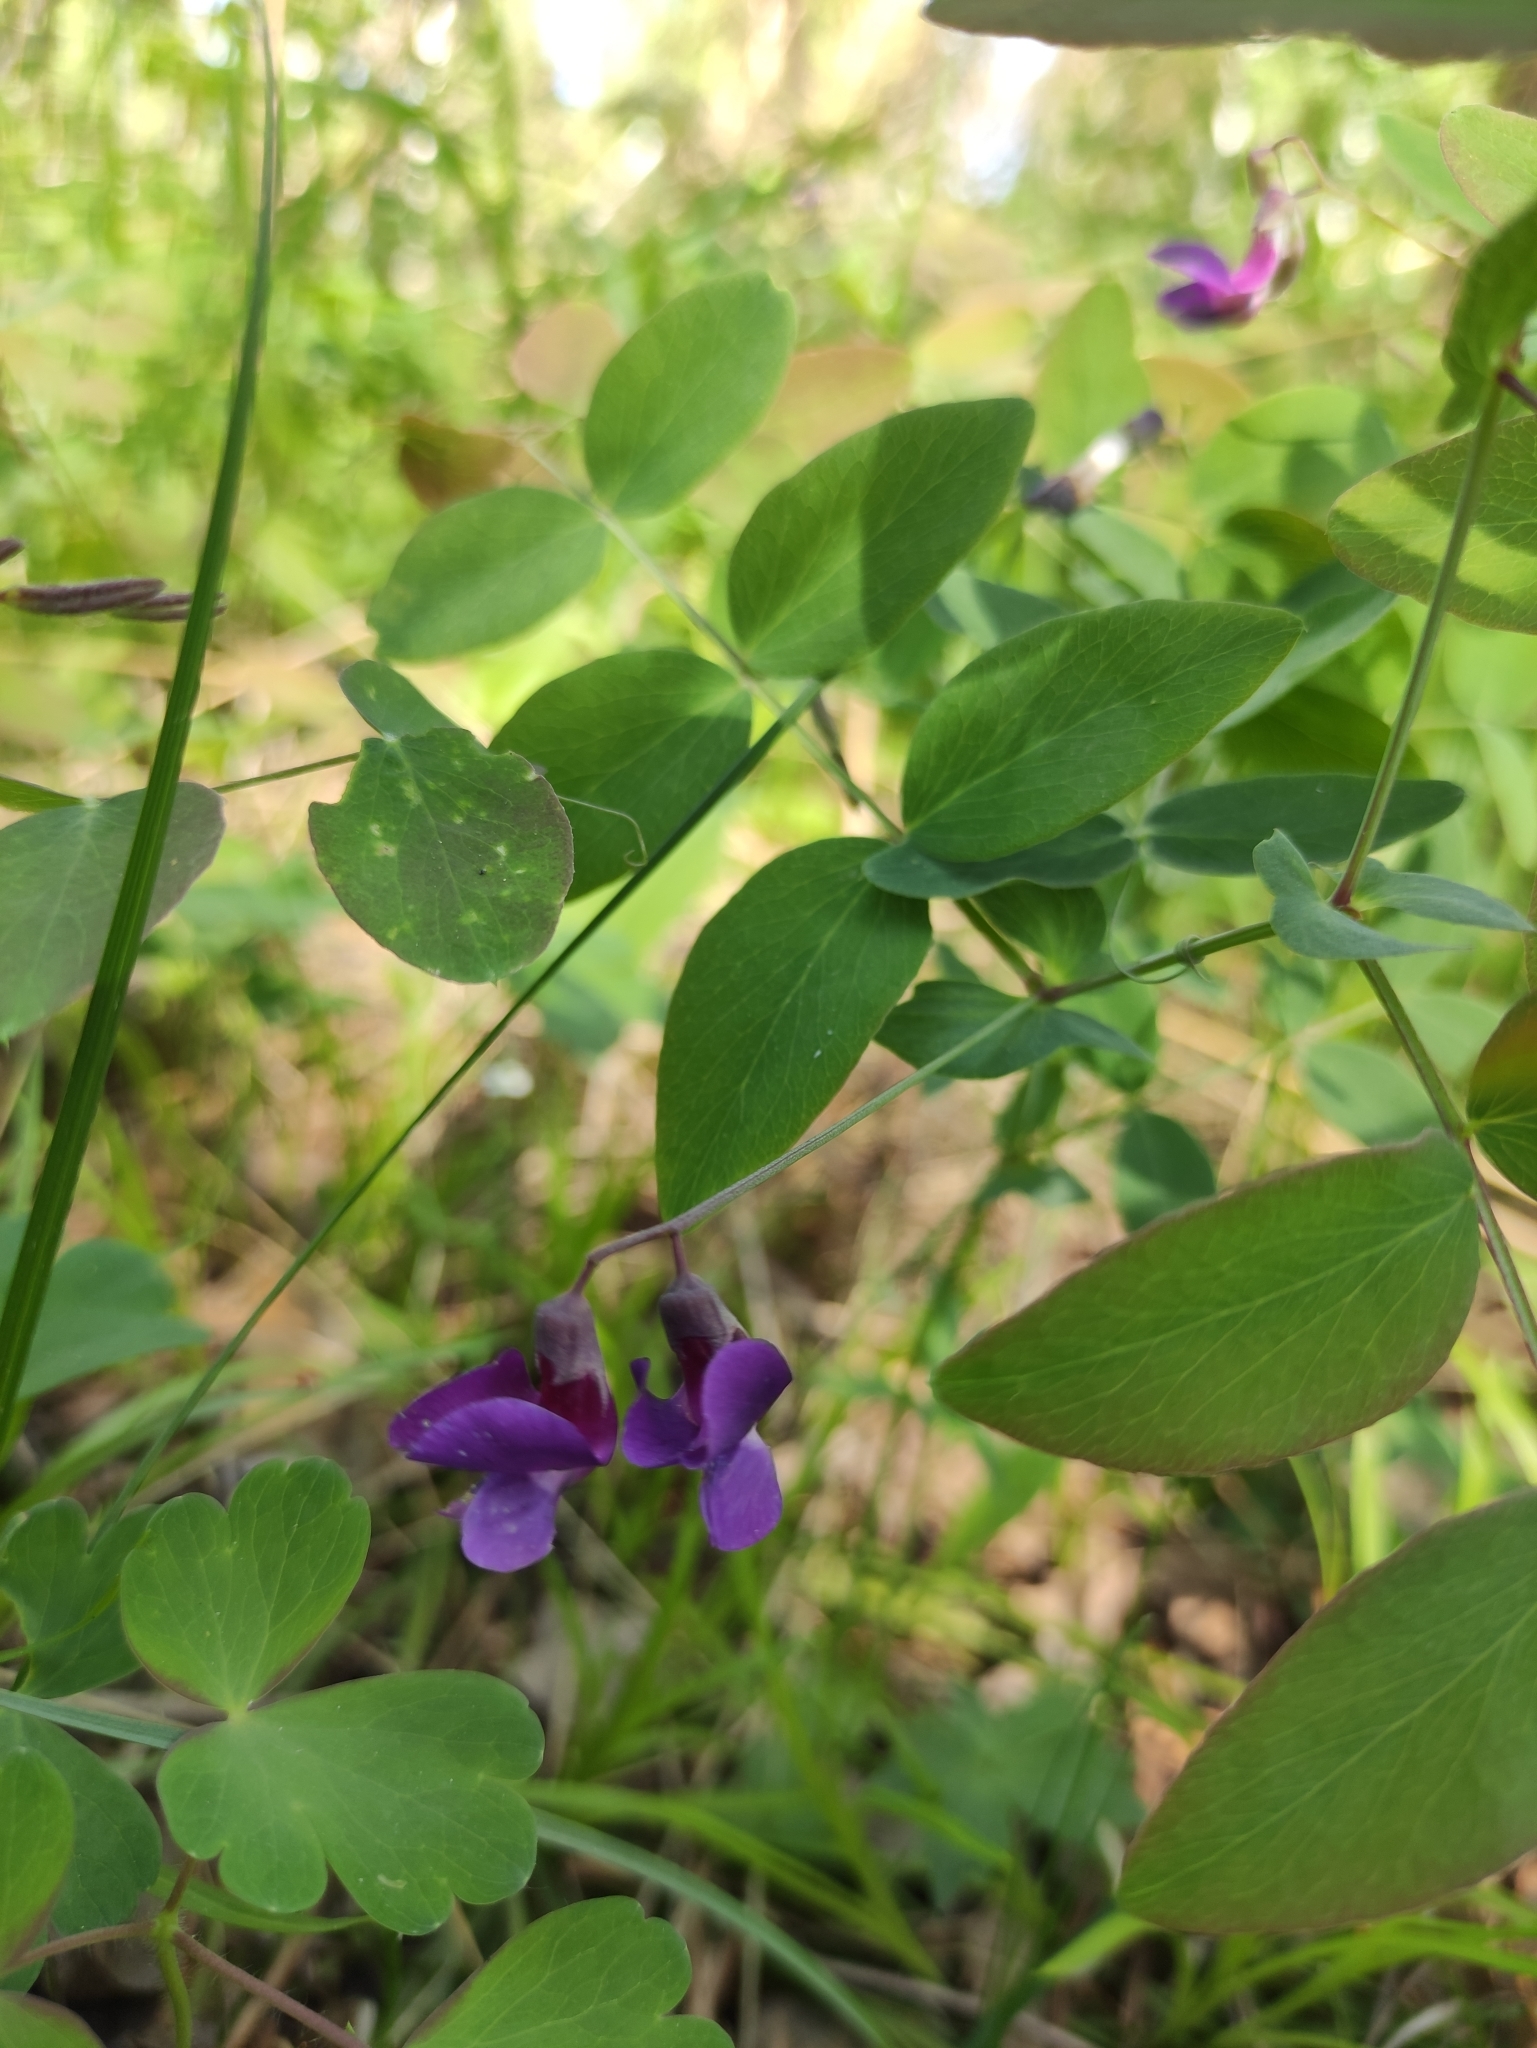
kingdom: Plantae
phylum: Tracheophyta
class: Magnoliopsida
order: Fabales
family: Fabaceae
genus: Lathyrus
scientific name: Lathyrus humilis
